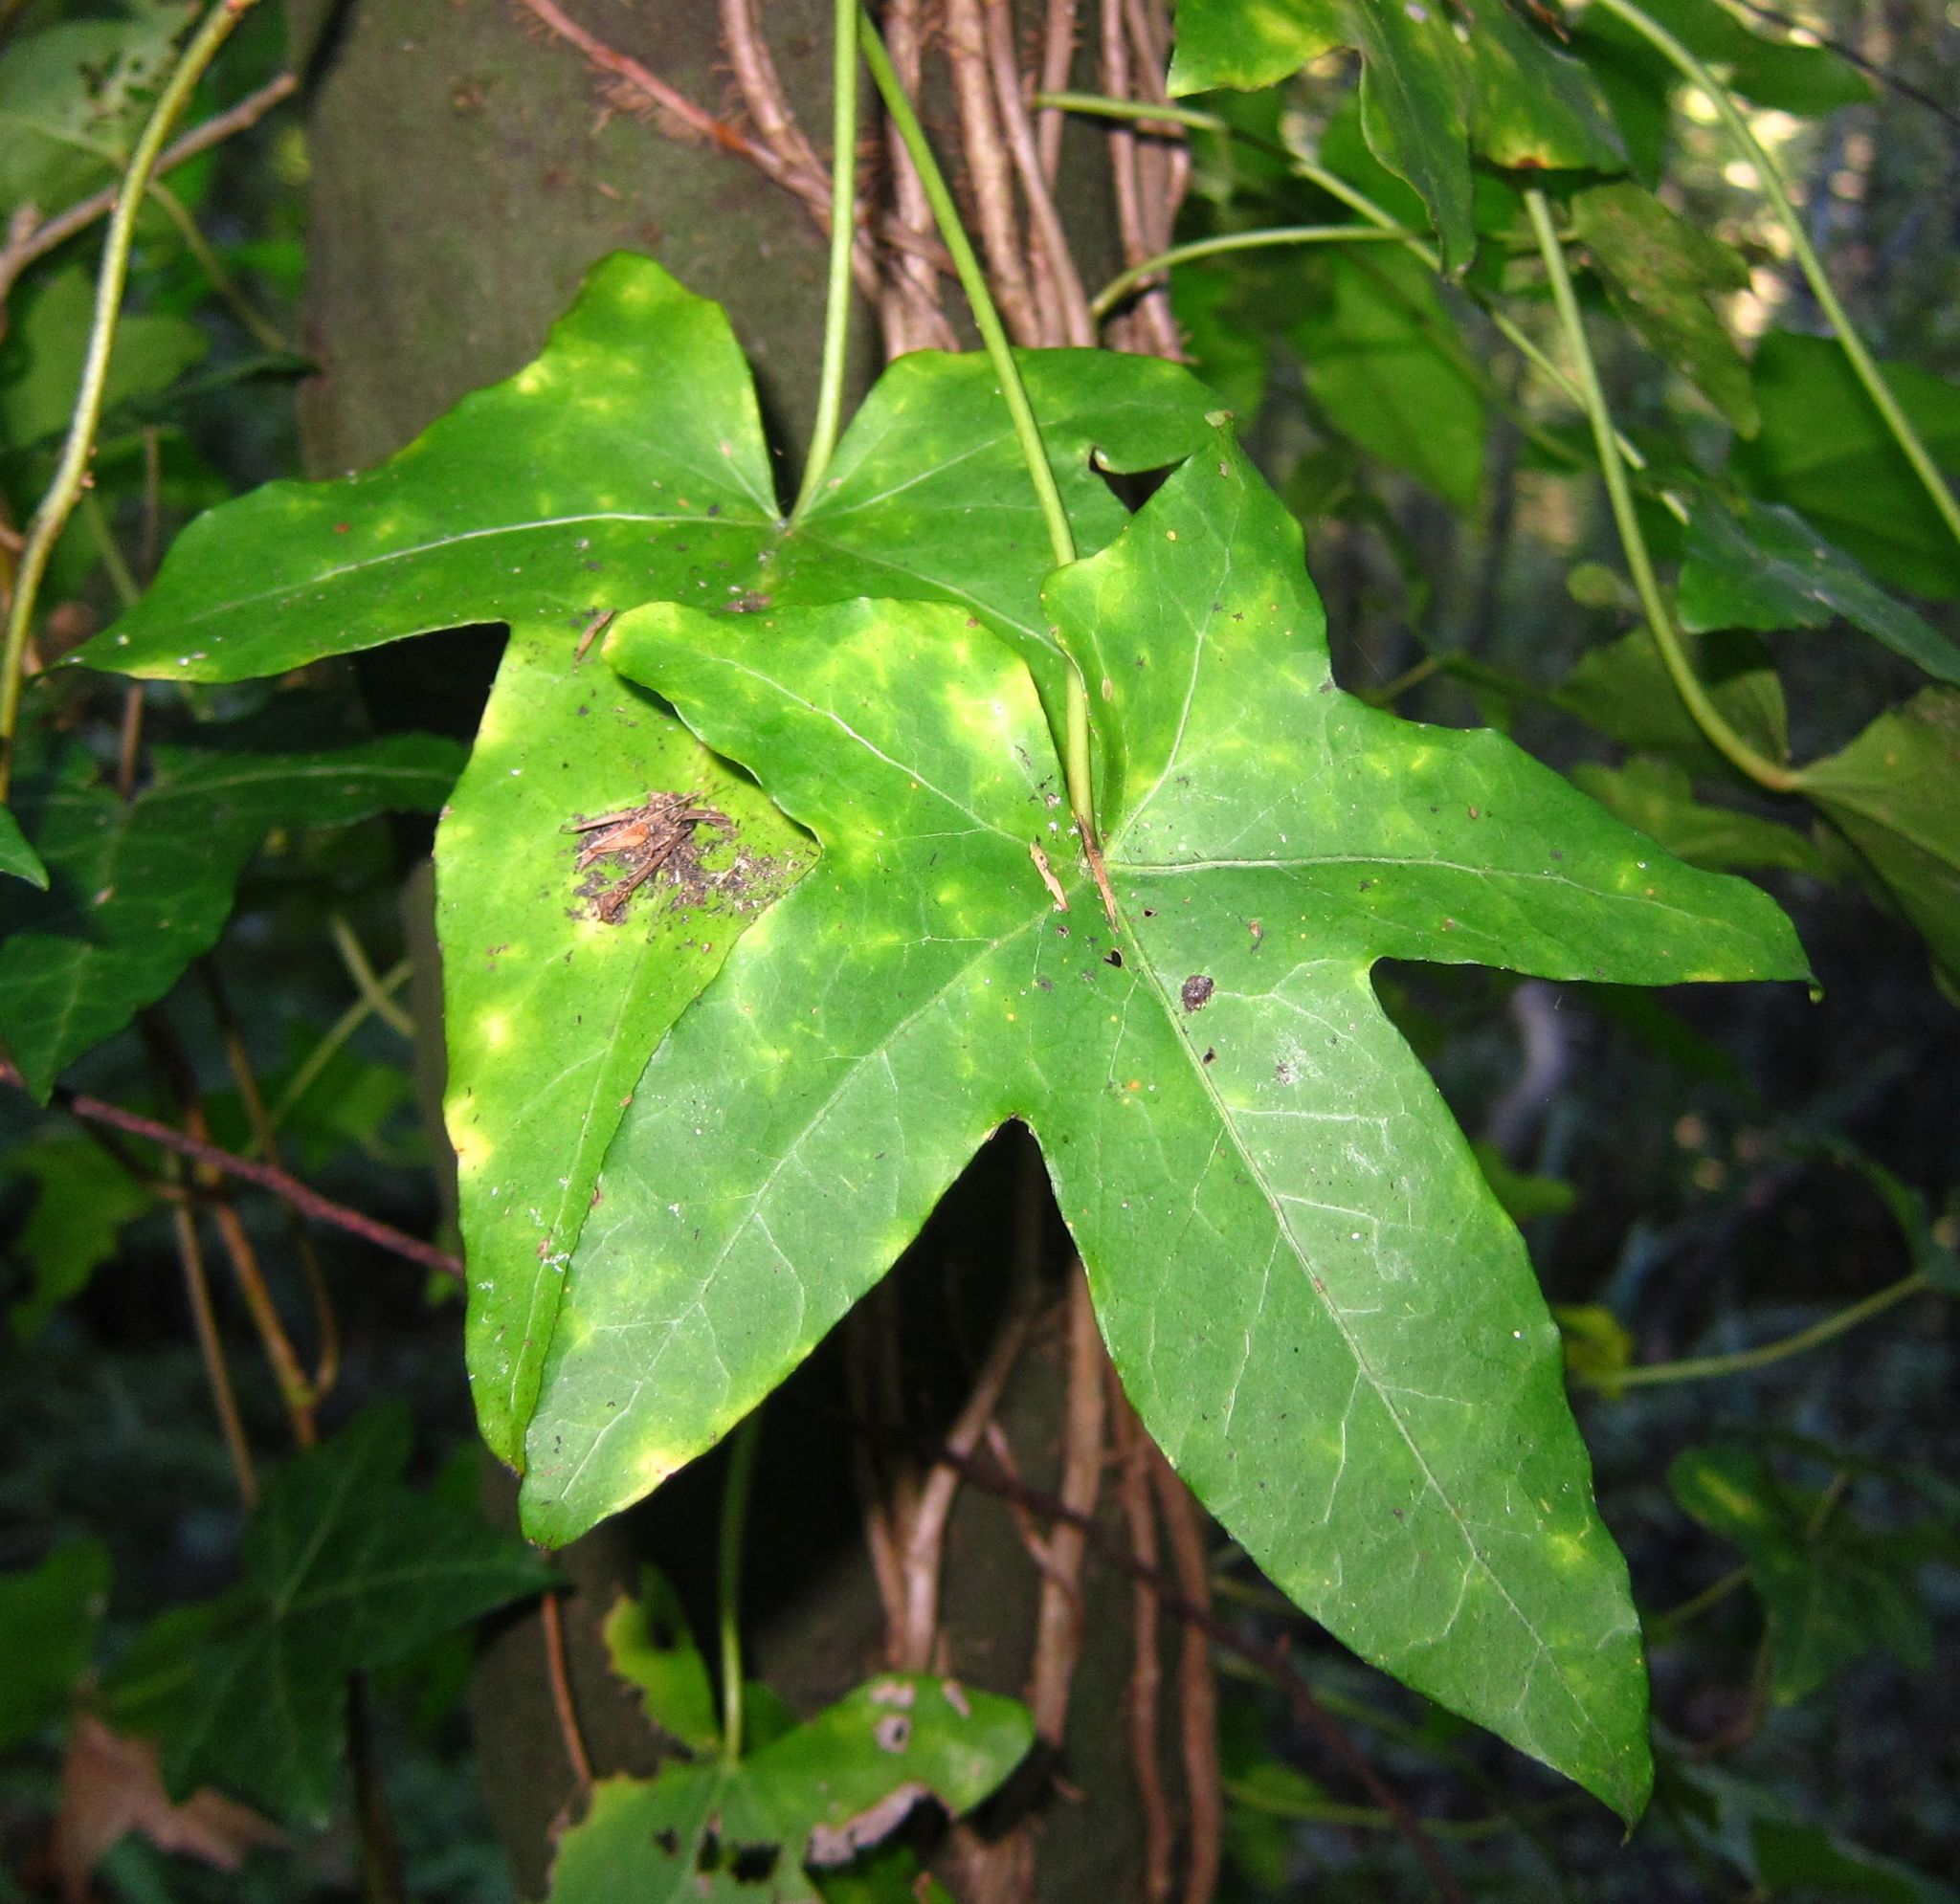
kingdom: Plantae
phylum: Tracheophyta
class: Magnoliopsida
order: Apiales
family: Araliaceae
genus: Hedera
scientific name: Hedera helix
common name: Ivy
